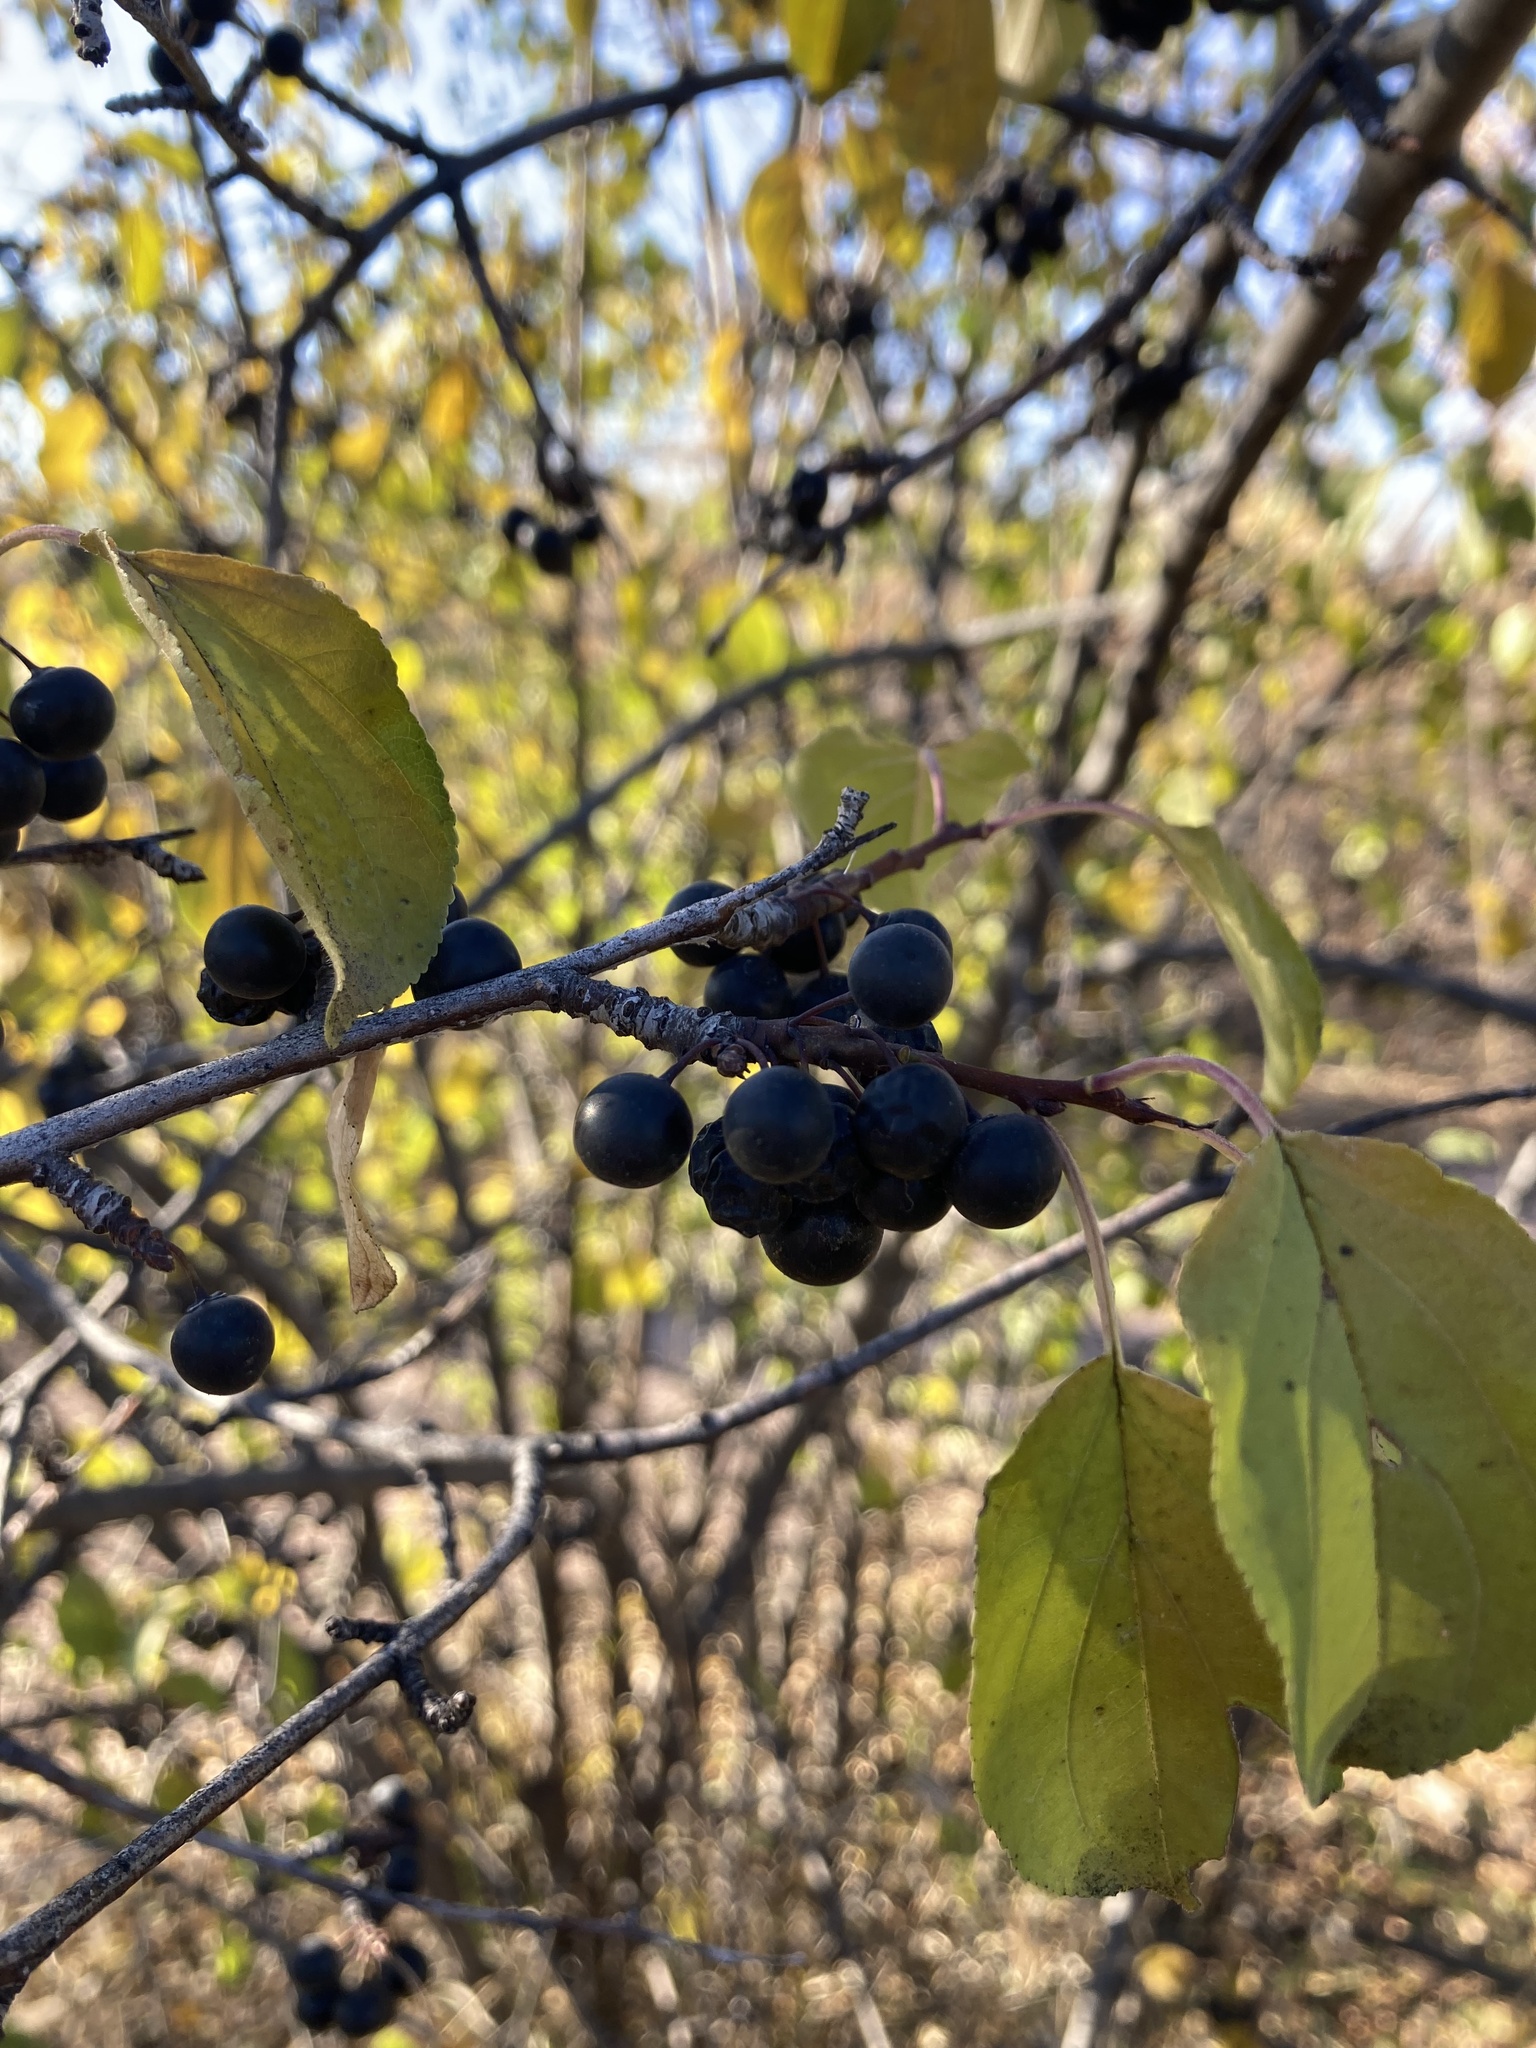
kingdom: Plantae
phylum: Tracheophyta
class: Magnoliopsida
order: Rosales
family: Rhamnaceae
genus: Rhamnus
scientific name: Rhamnus cathartica
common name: Common buckthorn
